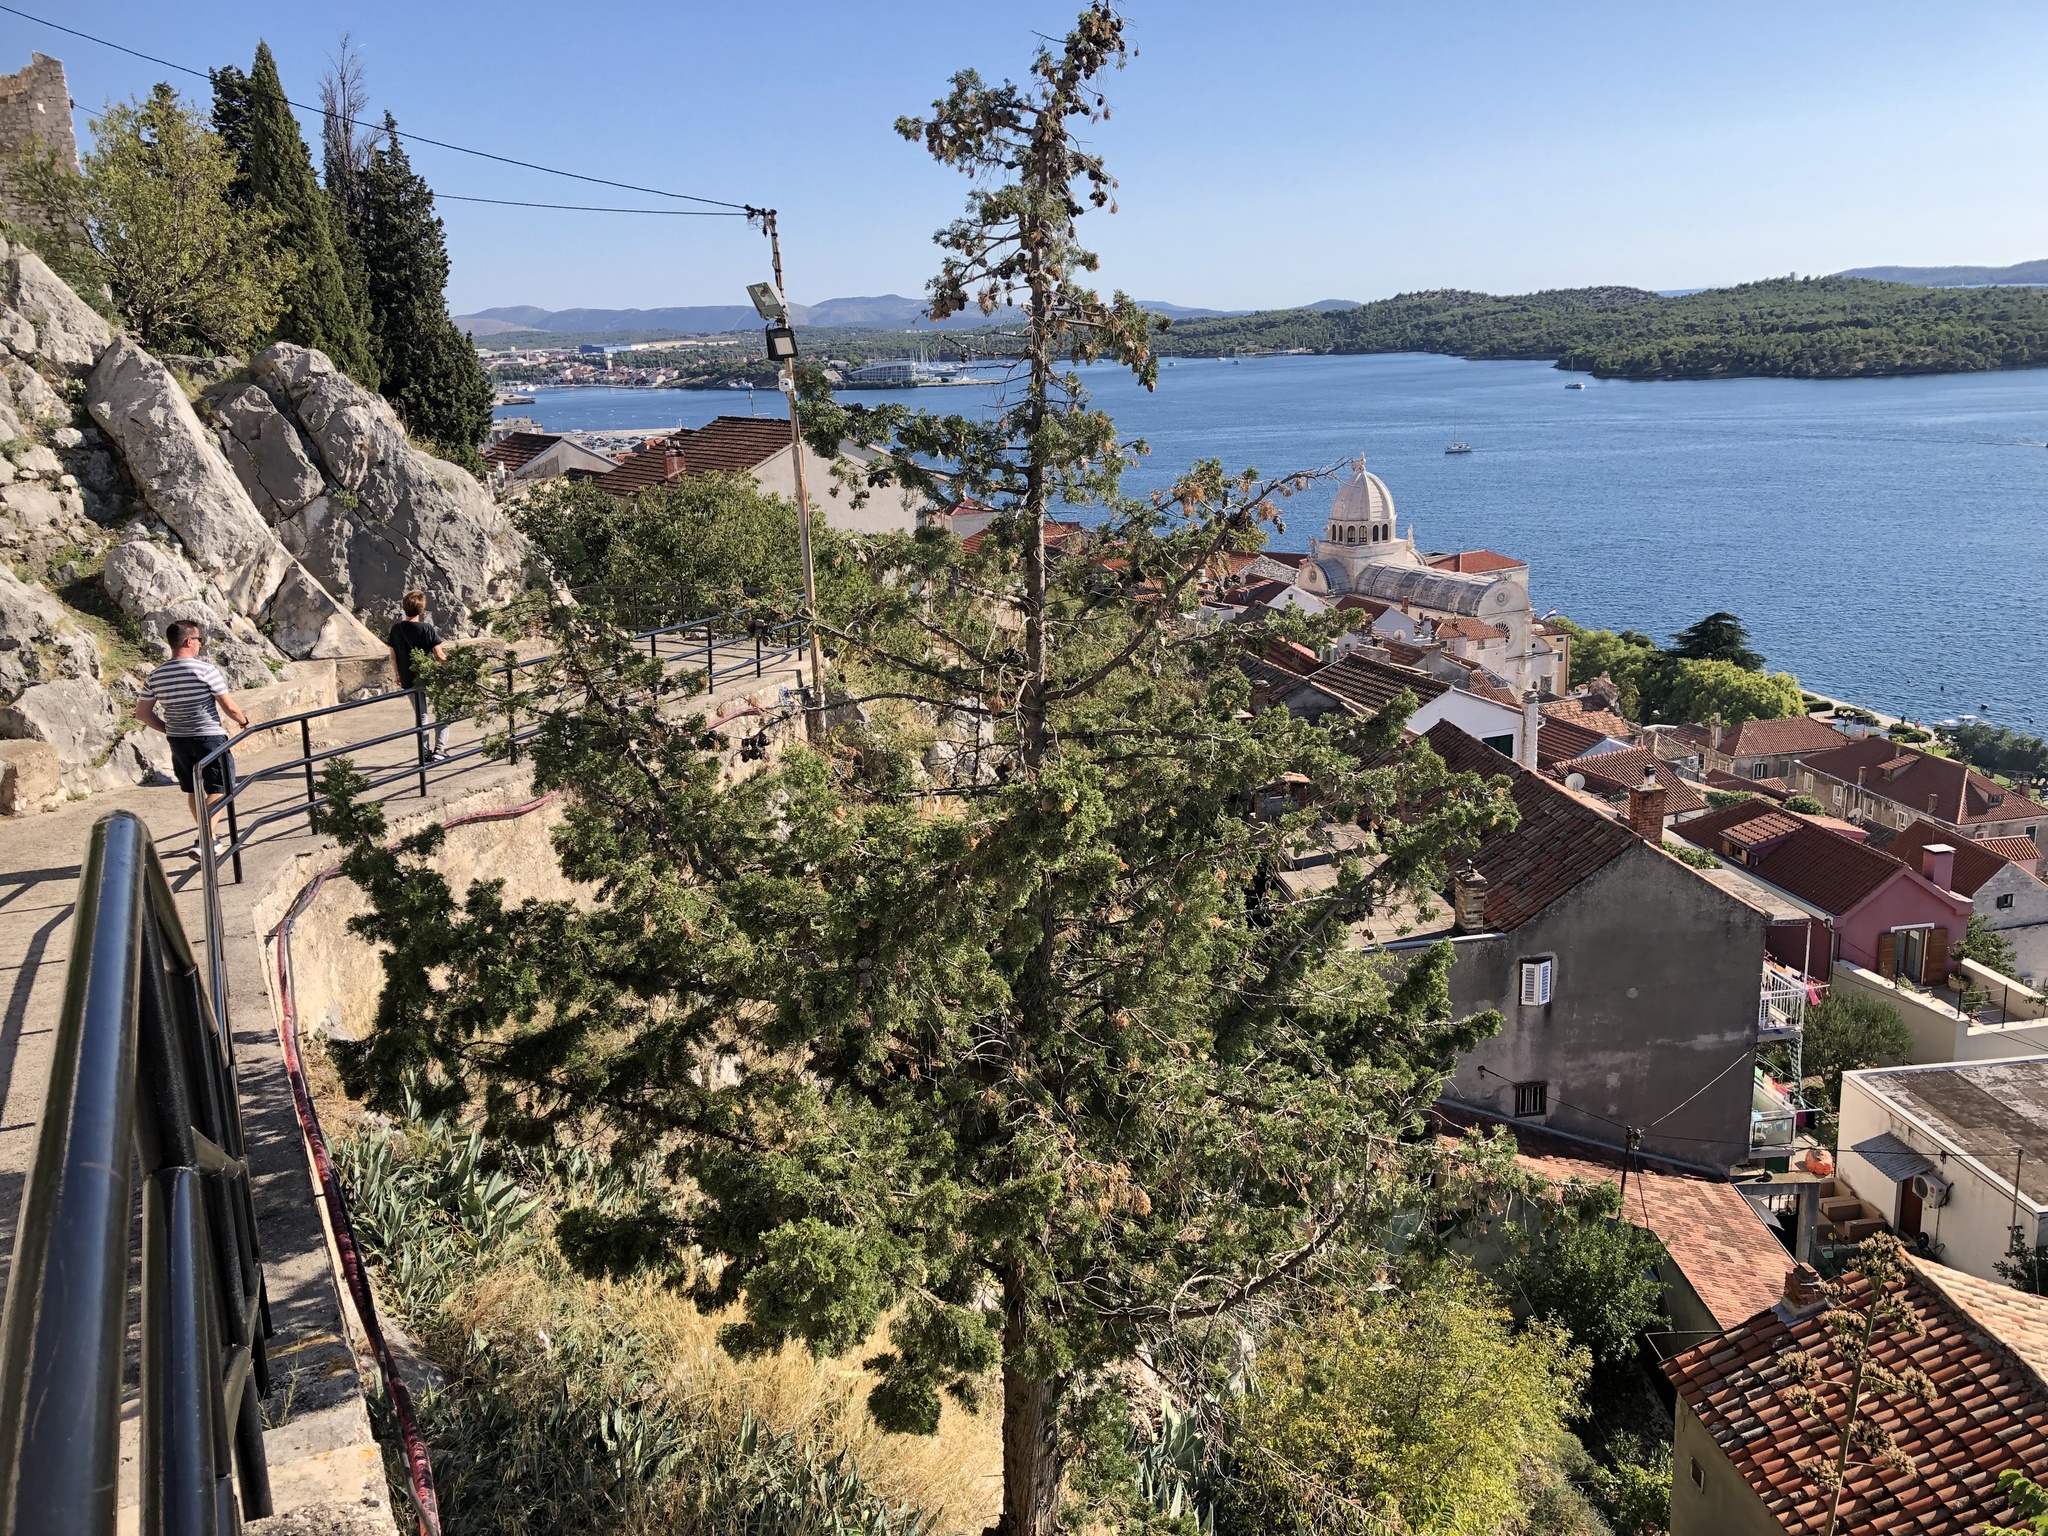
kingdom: Plantae
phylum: Tracheophyta
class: Pinopsida
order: Pinales
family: Cupressaceae
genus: Cupressus
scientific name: Cupressus sempervirens
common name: Italian cypress
